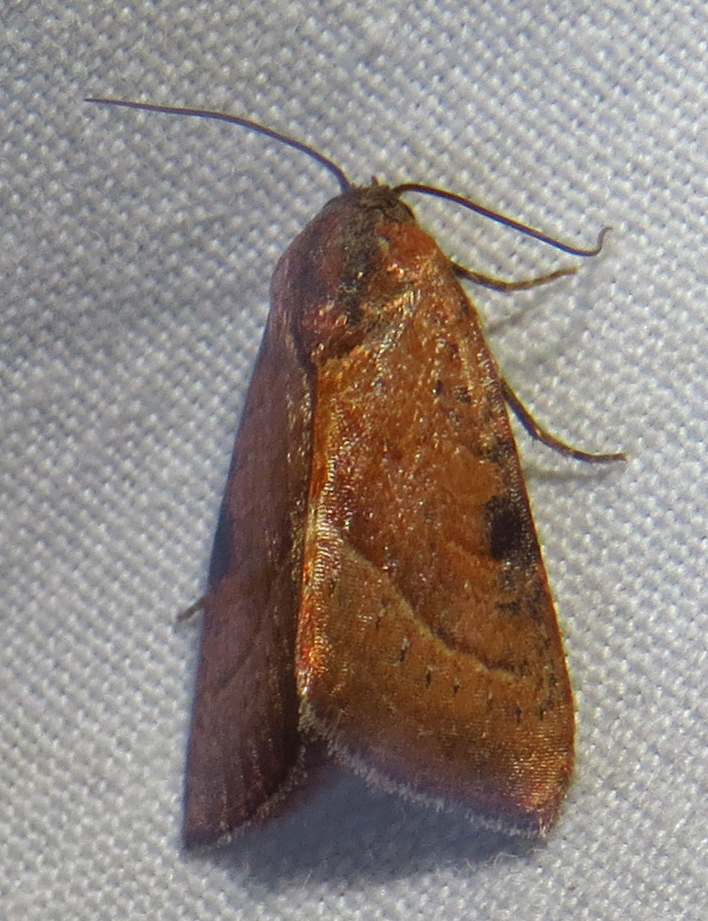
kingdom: Animalia
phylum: Arthropoda
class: Insecta
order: Lepidoptera
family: Noctuidae
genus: Galgula
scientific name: Galgula partita
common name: Wedgeling
